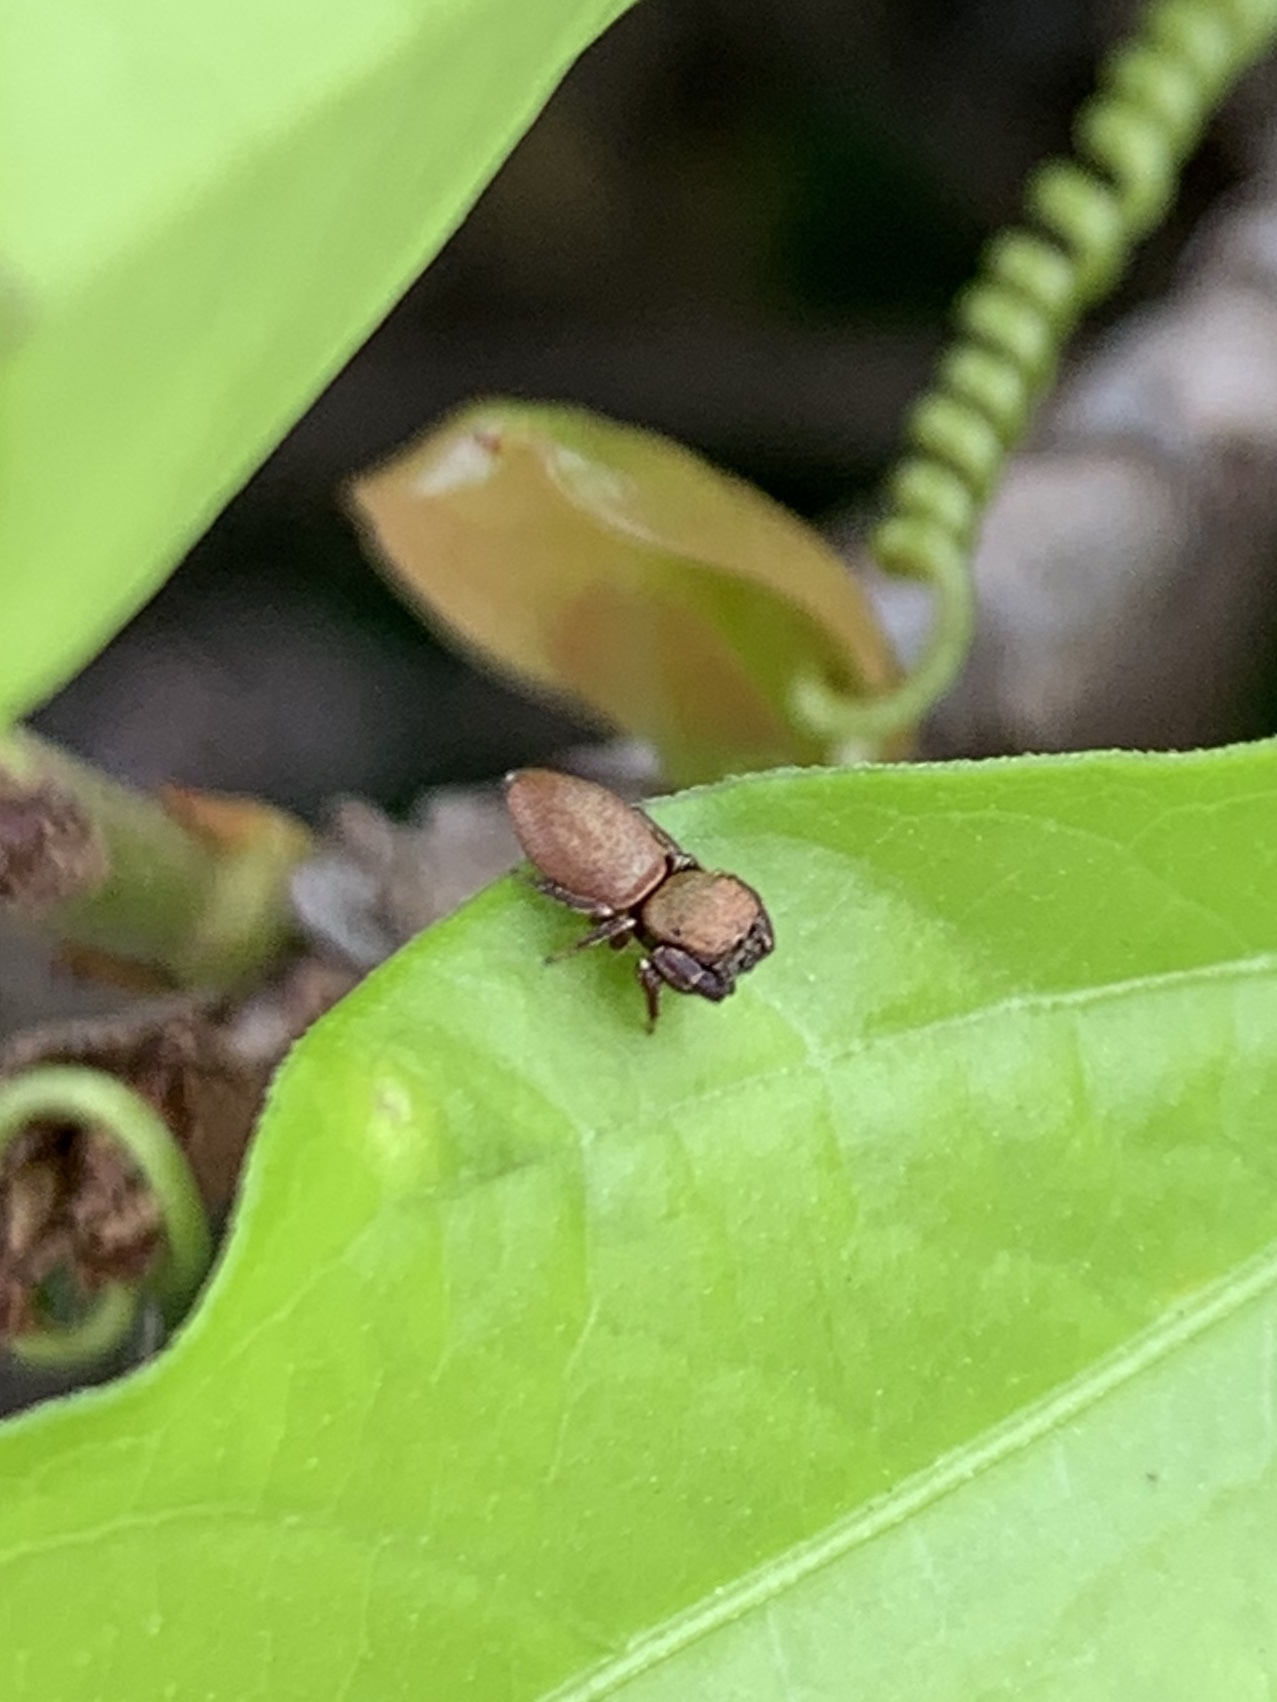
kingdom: Animalia
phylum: Arthropoda
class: Arachnida
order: Araneae
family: Salticidae
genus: Beata
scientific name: Beata wickhami
